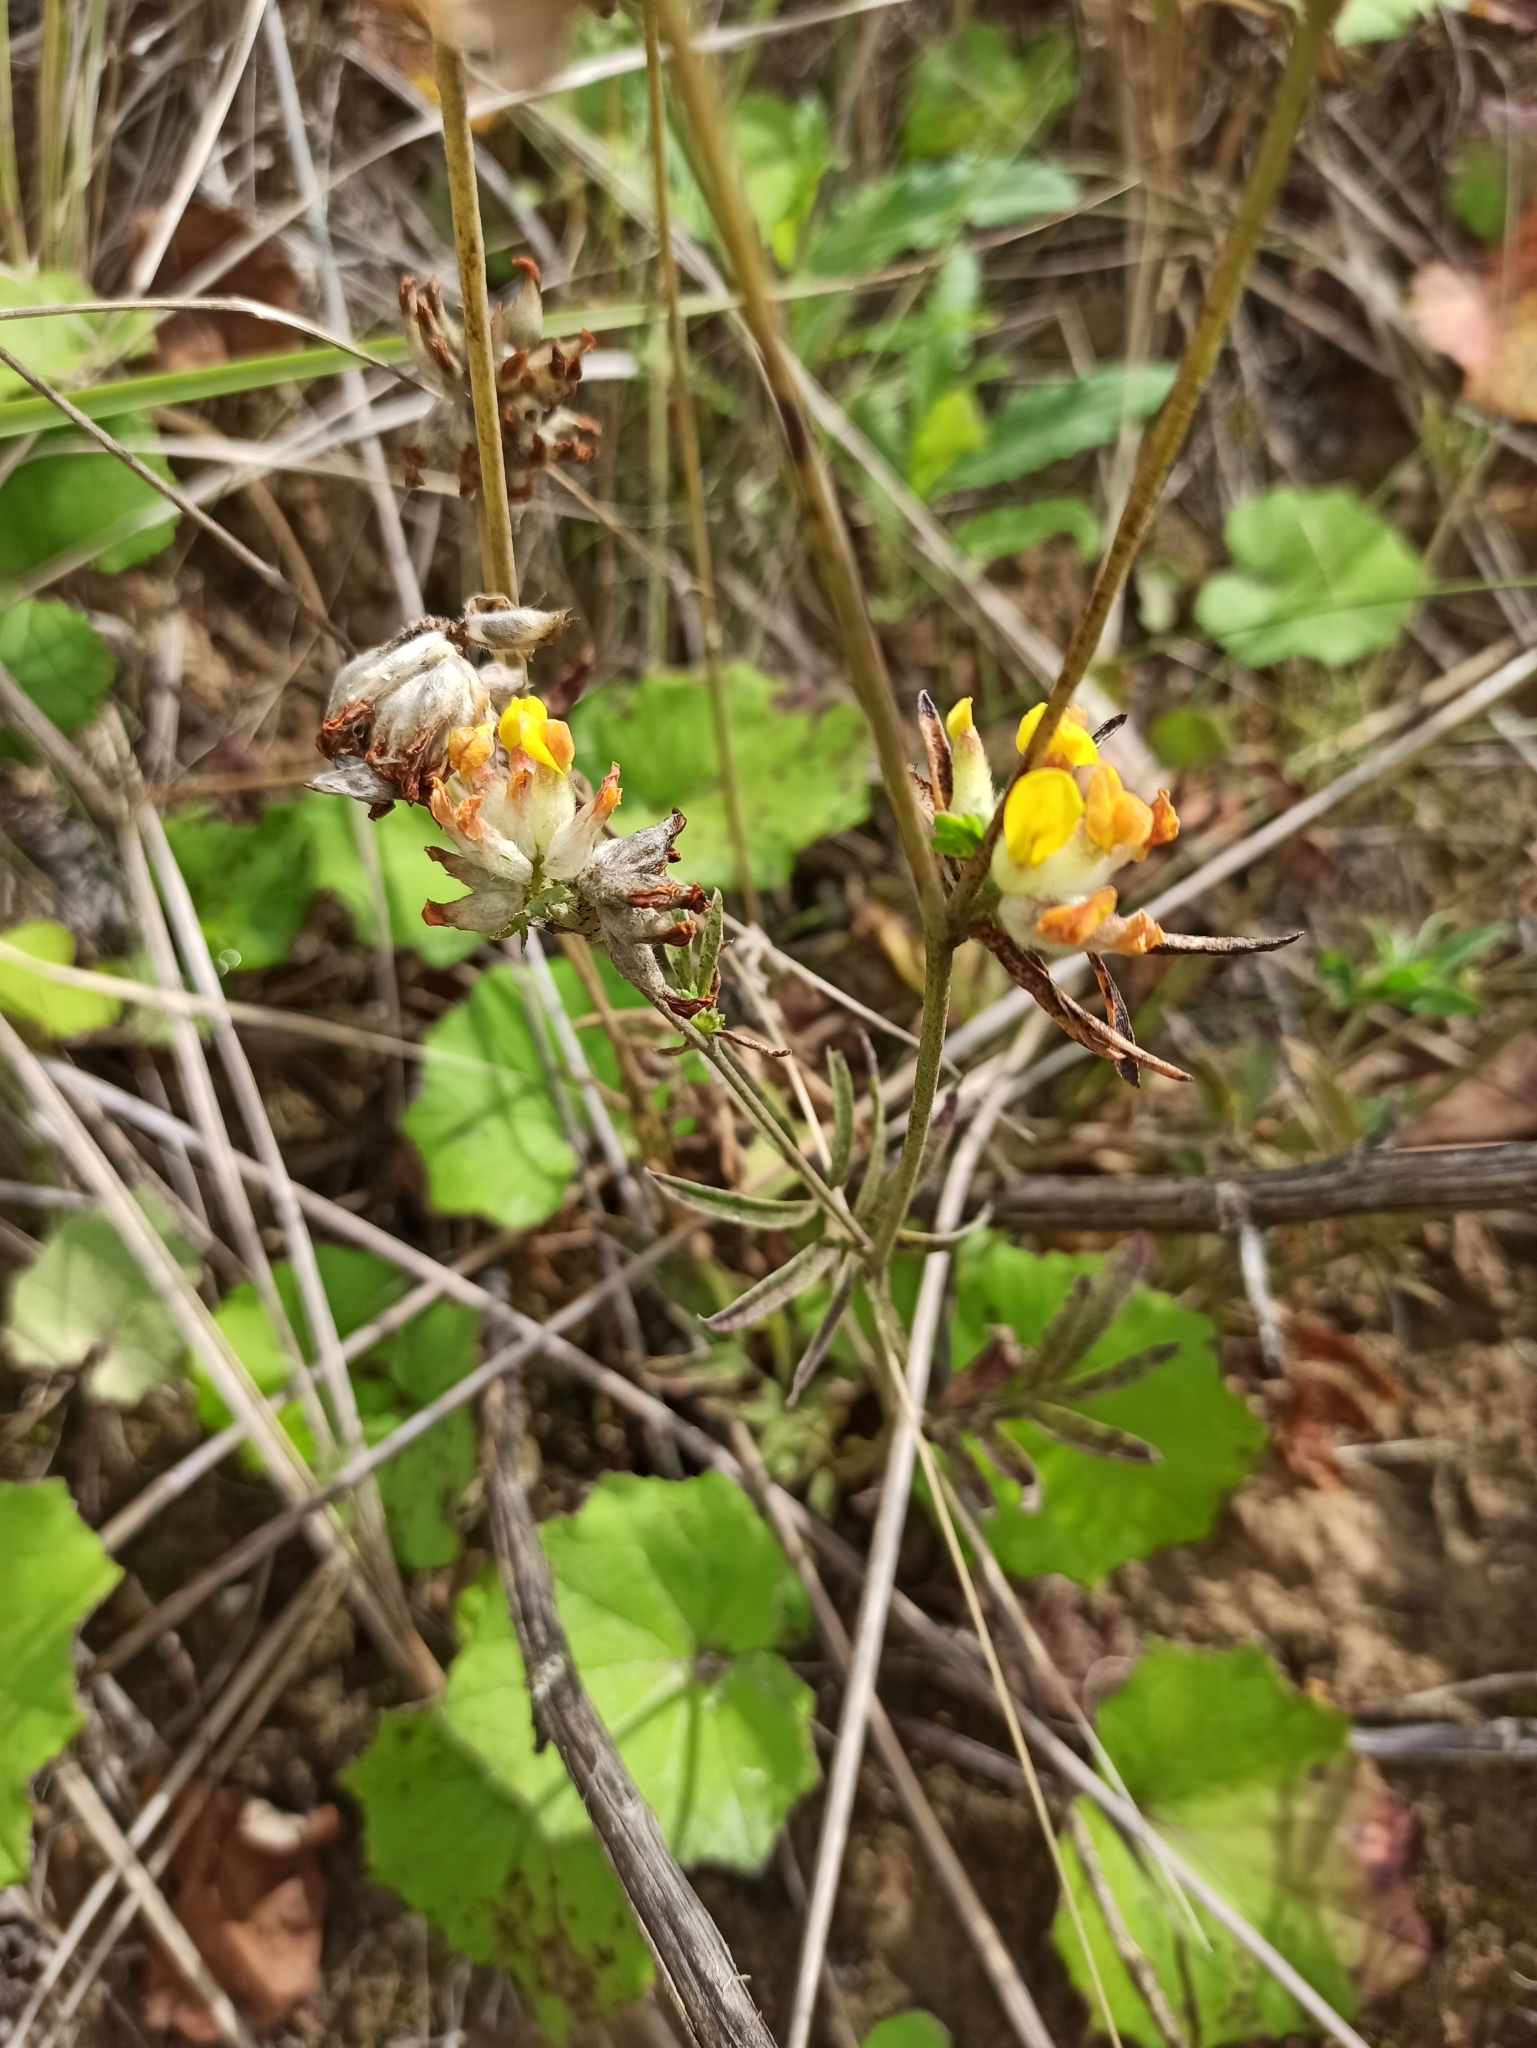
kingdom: Plantae
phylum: Tracheophyta
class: Magnoliopsida
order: Fabales
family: Fabaceae
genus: Anthyllis
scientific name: Anthyllis vulneraria
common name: Kidney vetch
